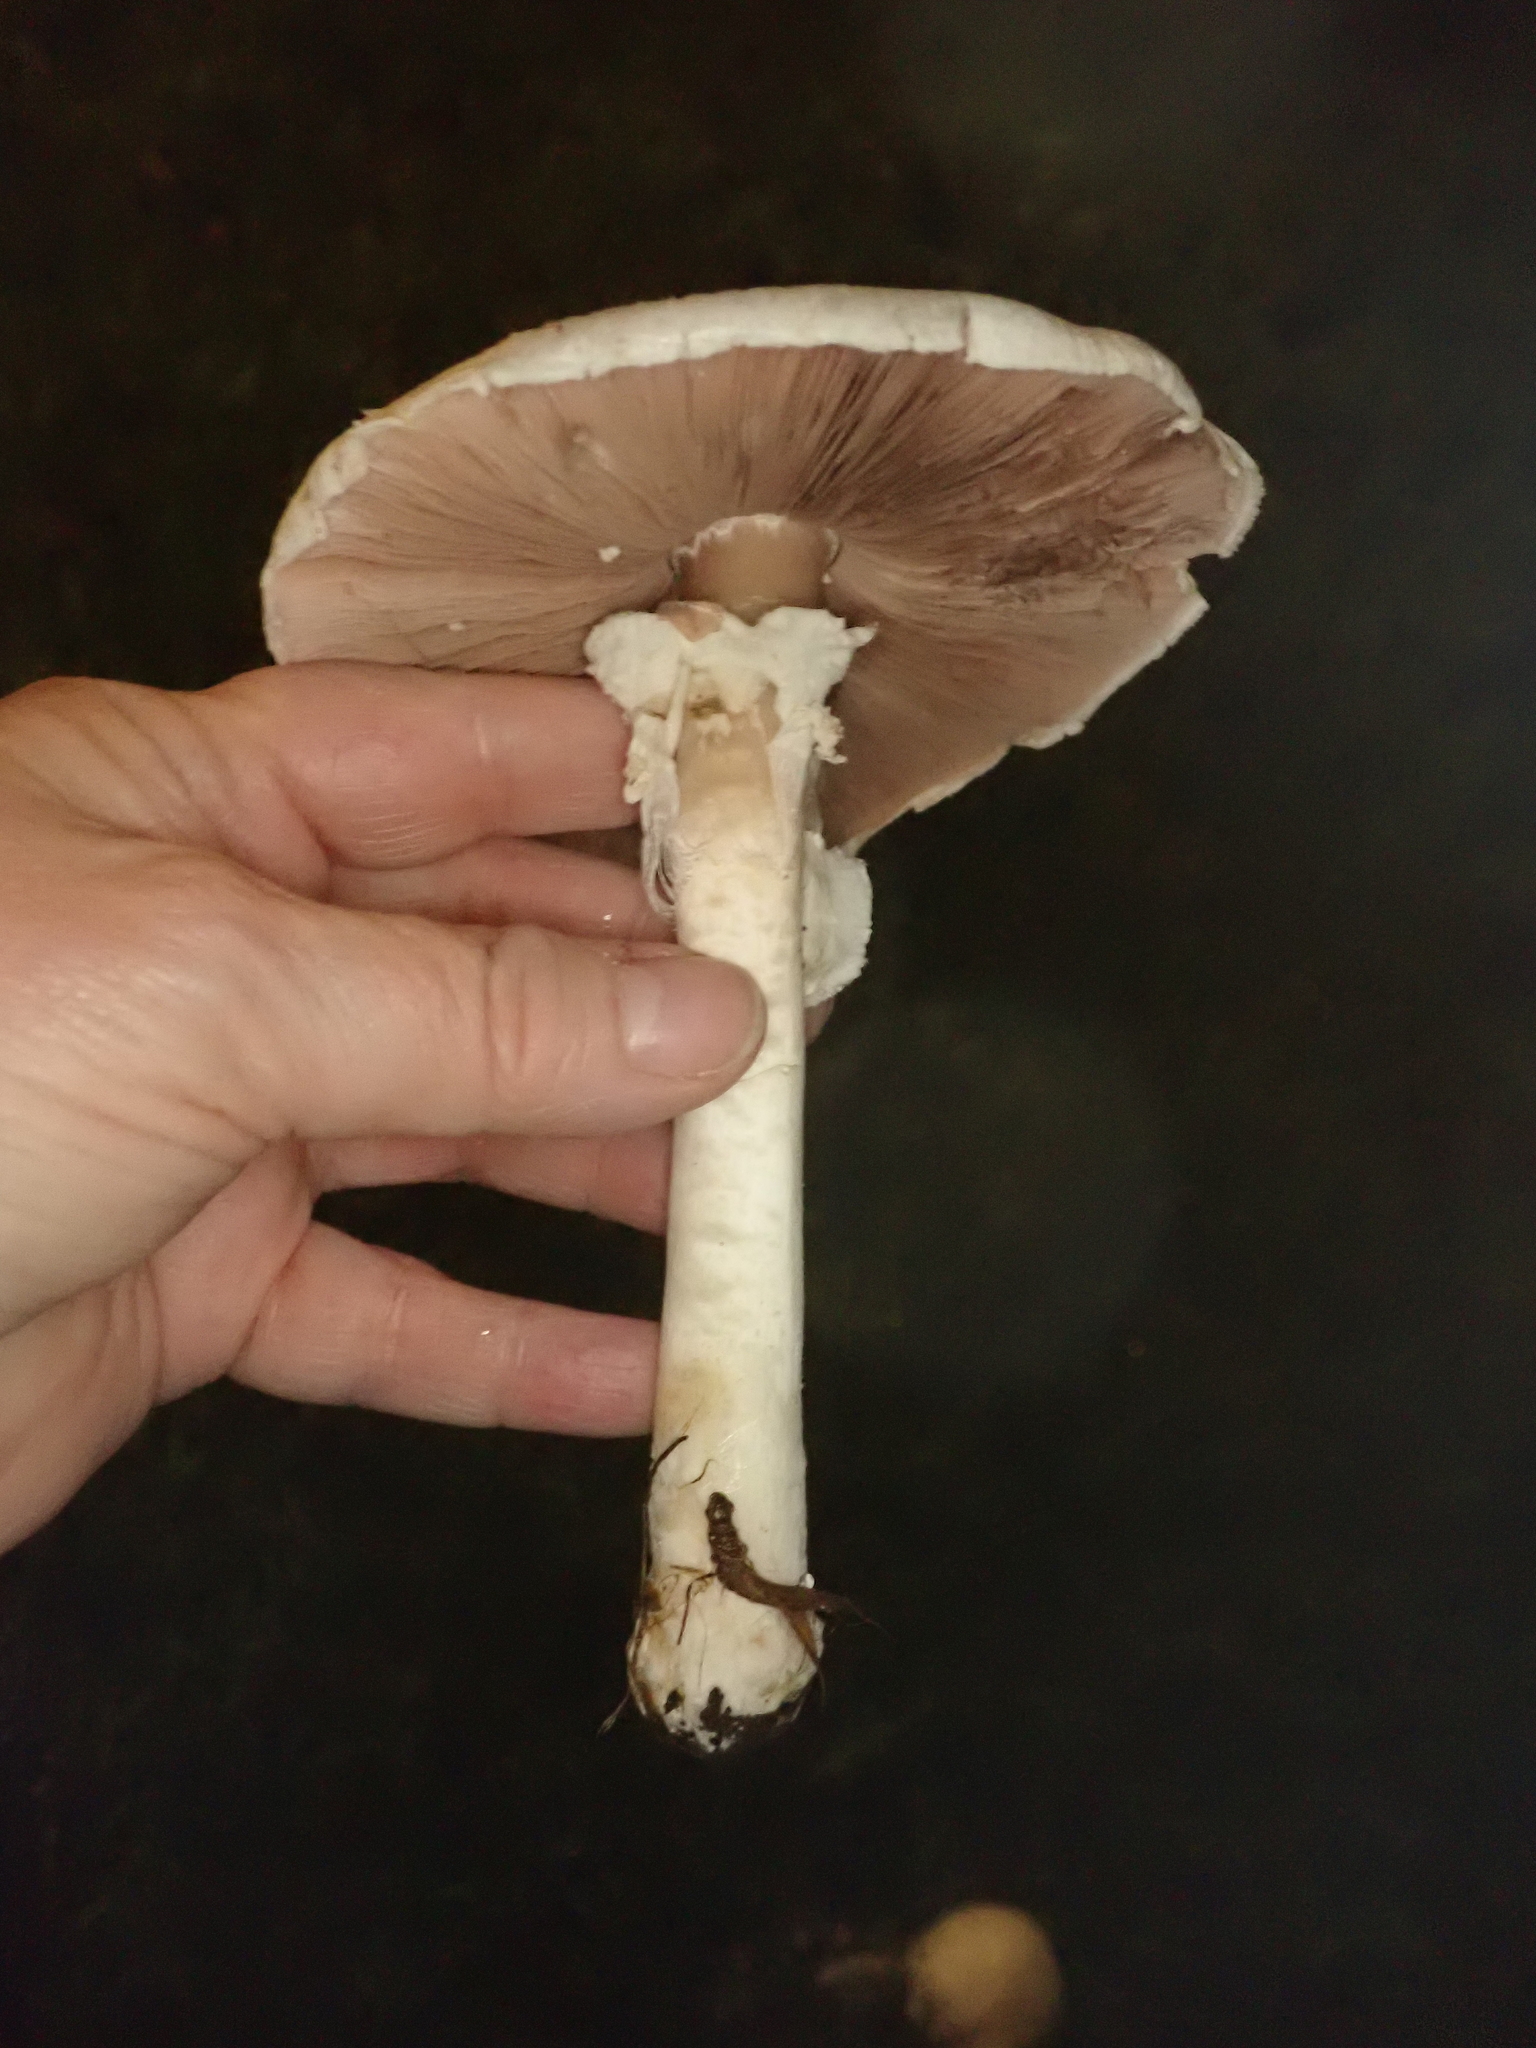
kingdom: Fungi
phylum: Basidiomycota
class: Agaricomycetes
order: Agaricales
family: Agaricaceae
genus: Agaricus
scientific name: Agaricus californicus
